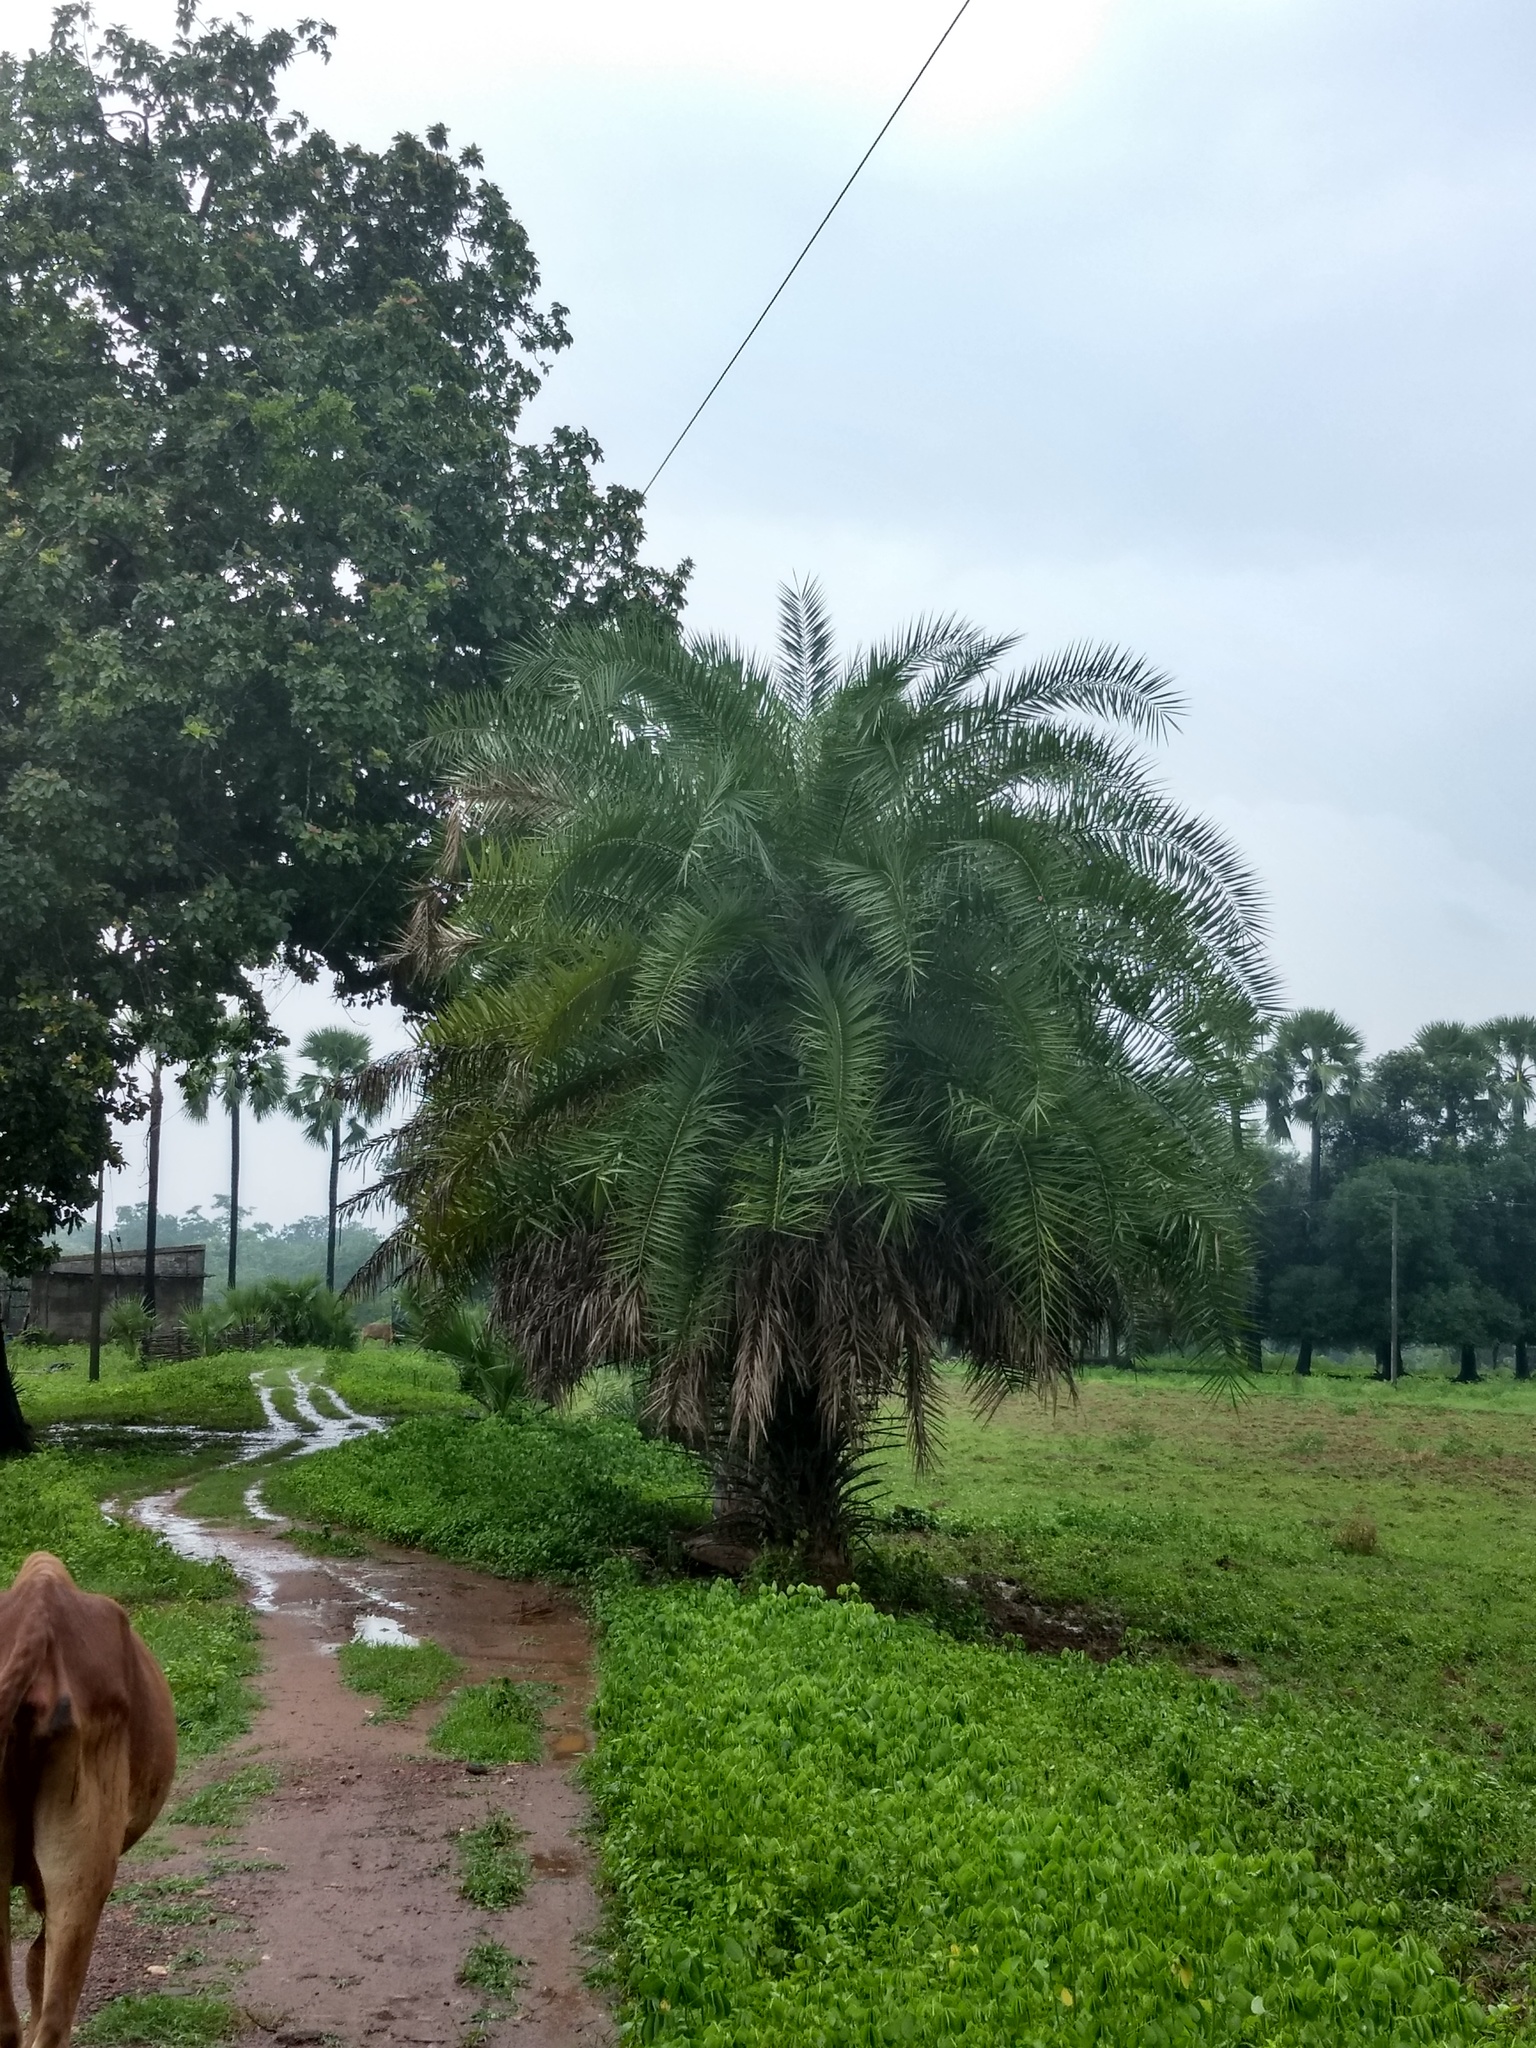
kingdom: Plantae
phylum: Tracheophyta
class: Liliopsida
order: Arecales
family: Arecaceae
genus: Phoenix
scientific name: Phoenix sylvestris
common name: Wild date palm
